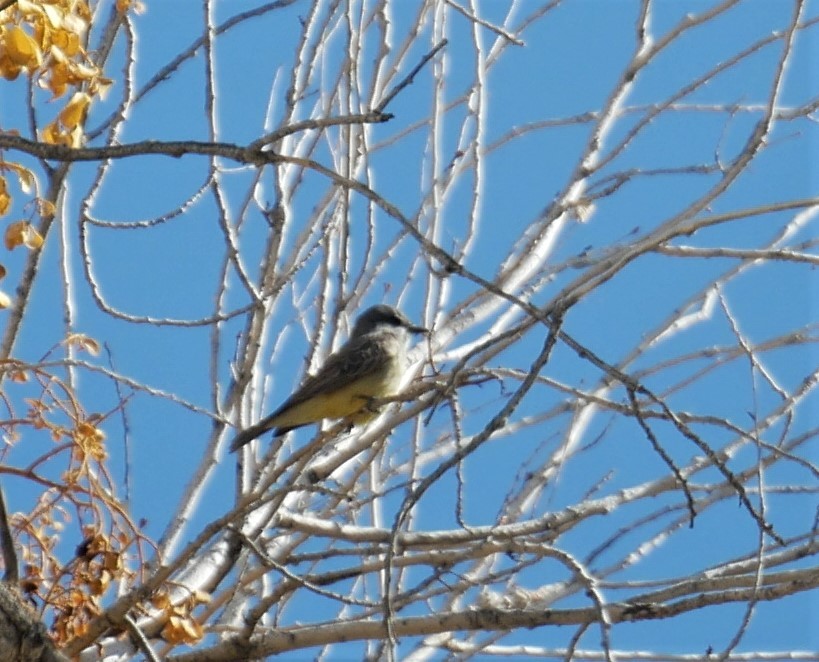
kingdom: Animalia
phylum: Chordata
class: Aves
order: Passeriformes
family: Tyrannidae
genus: Tyrannus
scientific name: Tyrannus vociferans
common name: Cassin's kingbird
